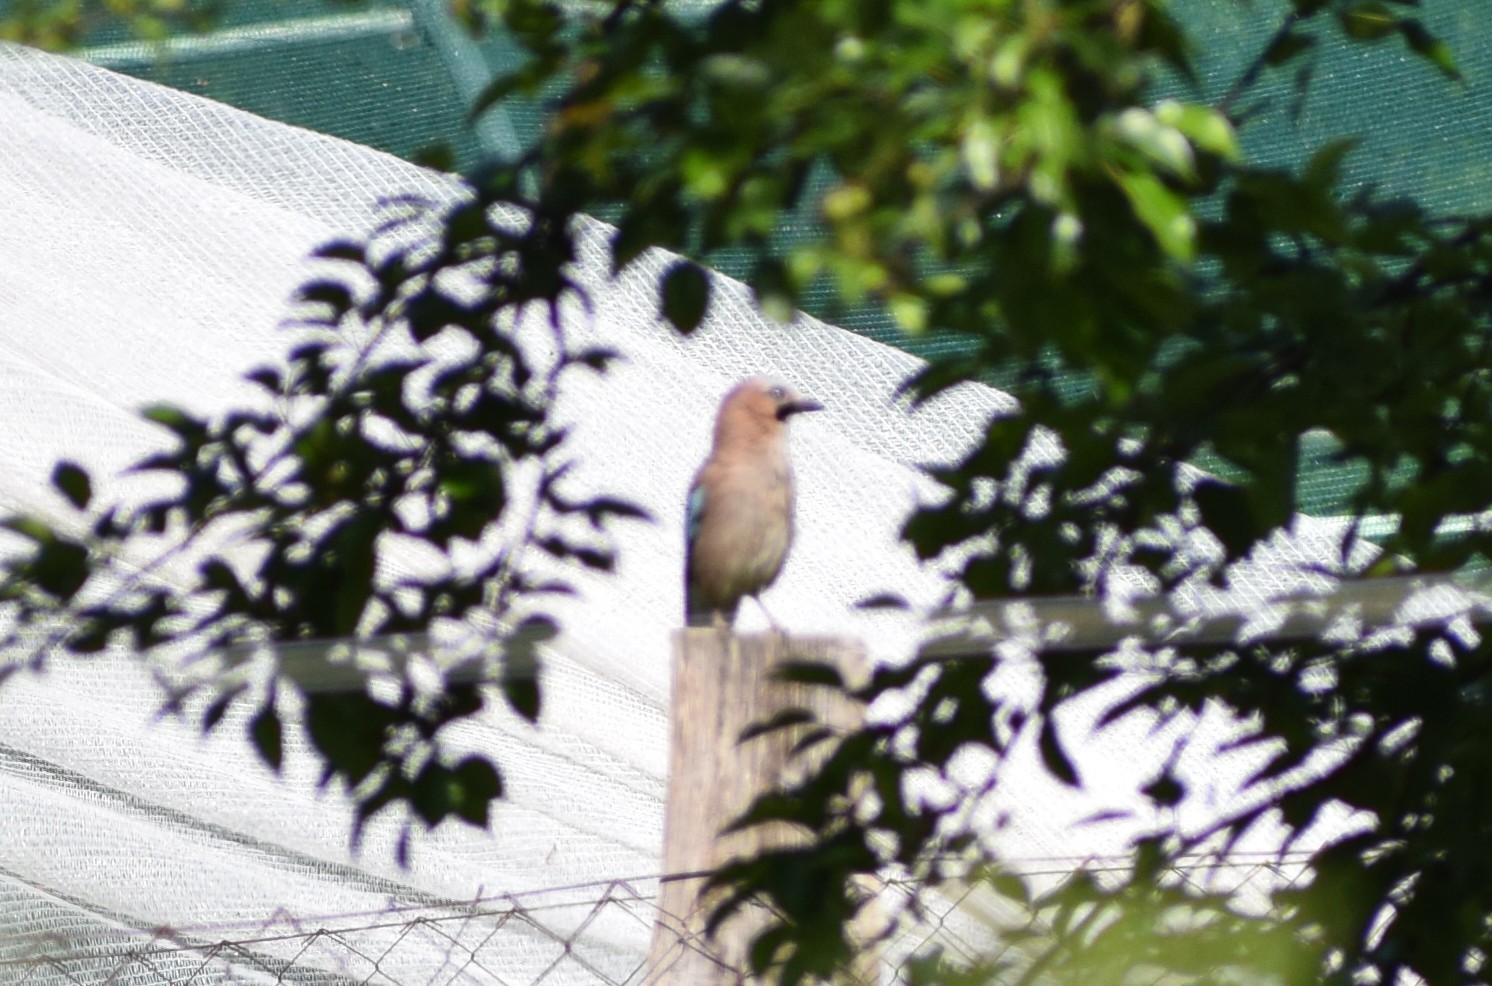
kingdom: Animalia
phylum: Chordata
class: Aves
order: Passeriformes
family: Corvidae
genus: Garrulus
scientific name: Garrulus glandarius
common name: Eurasian jay
